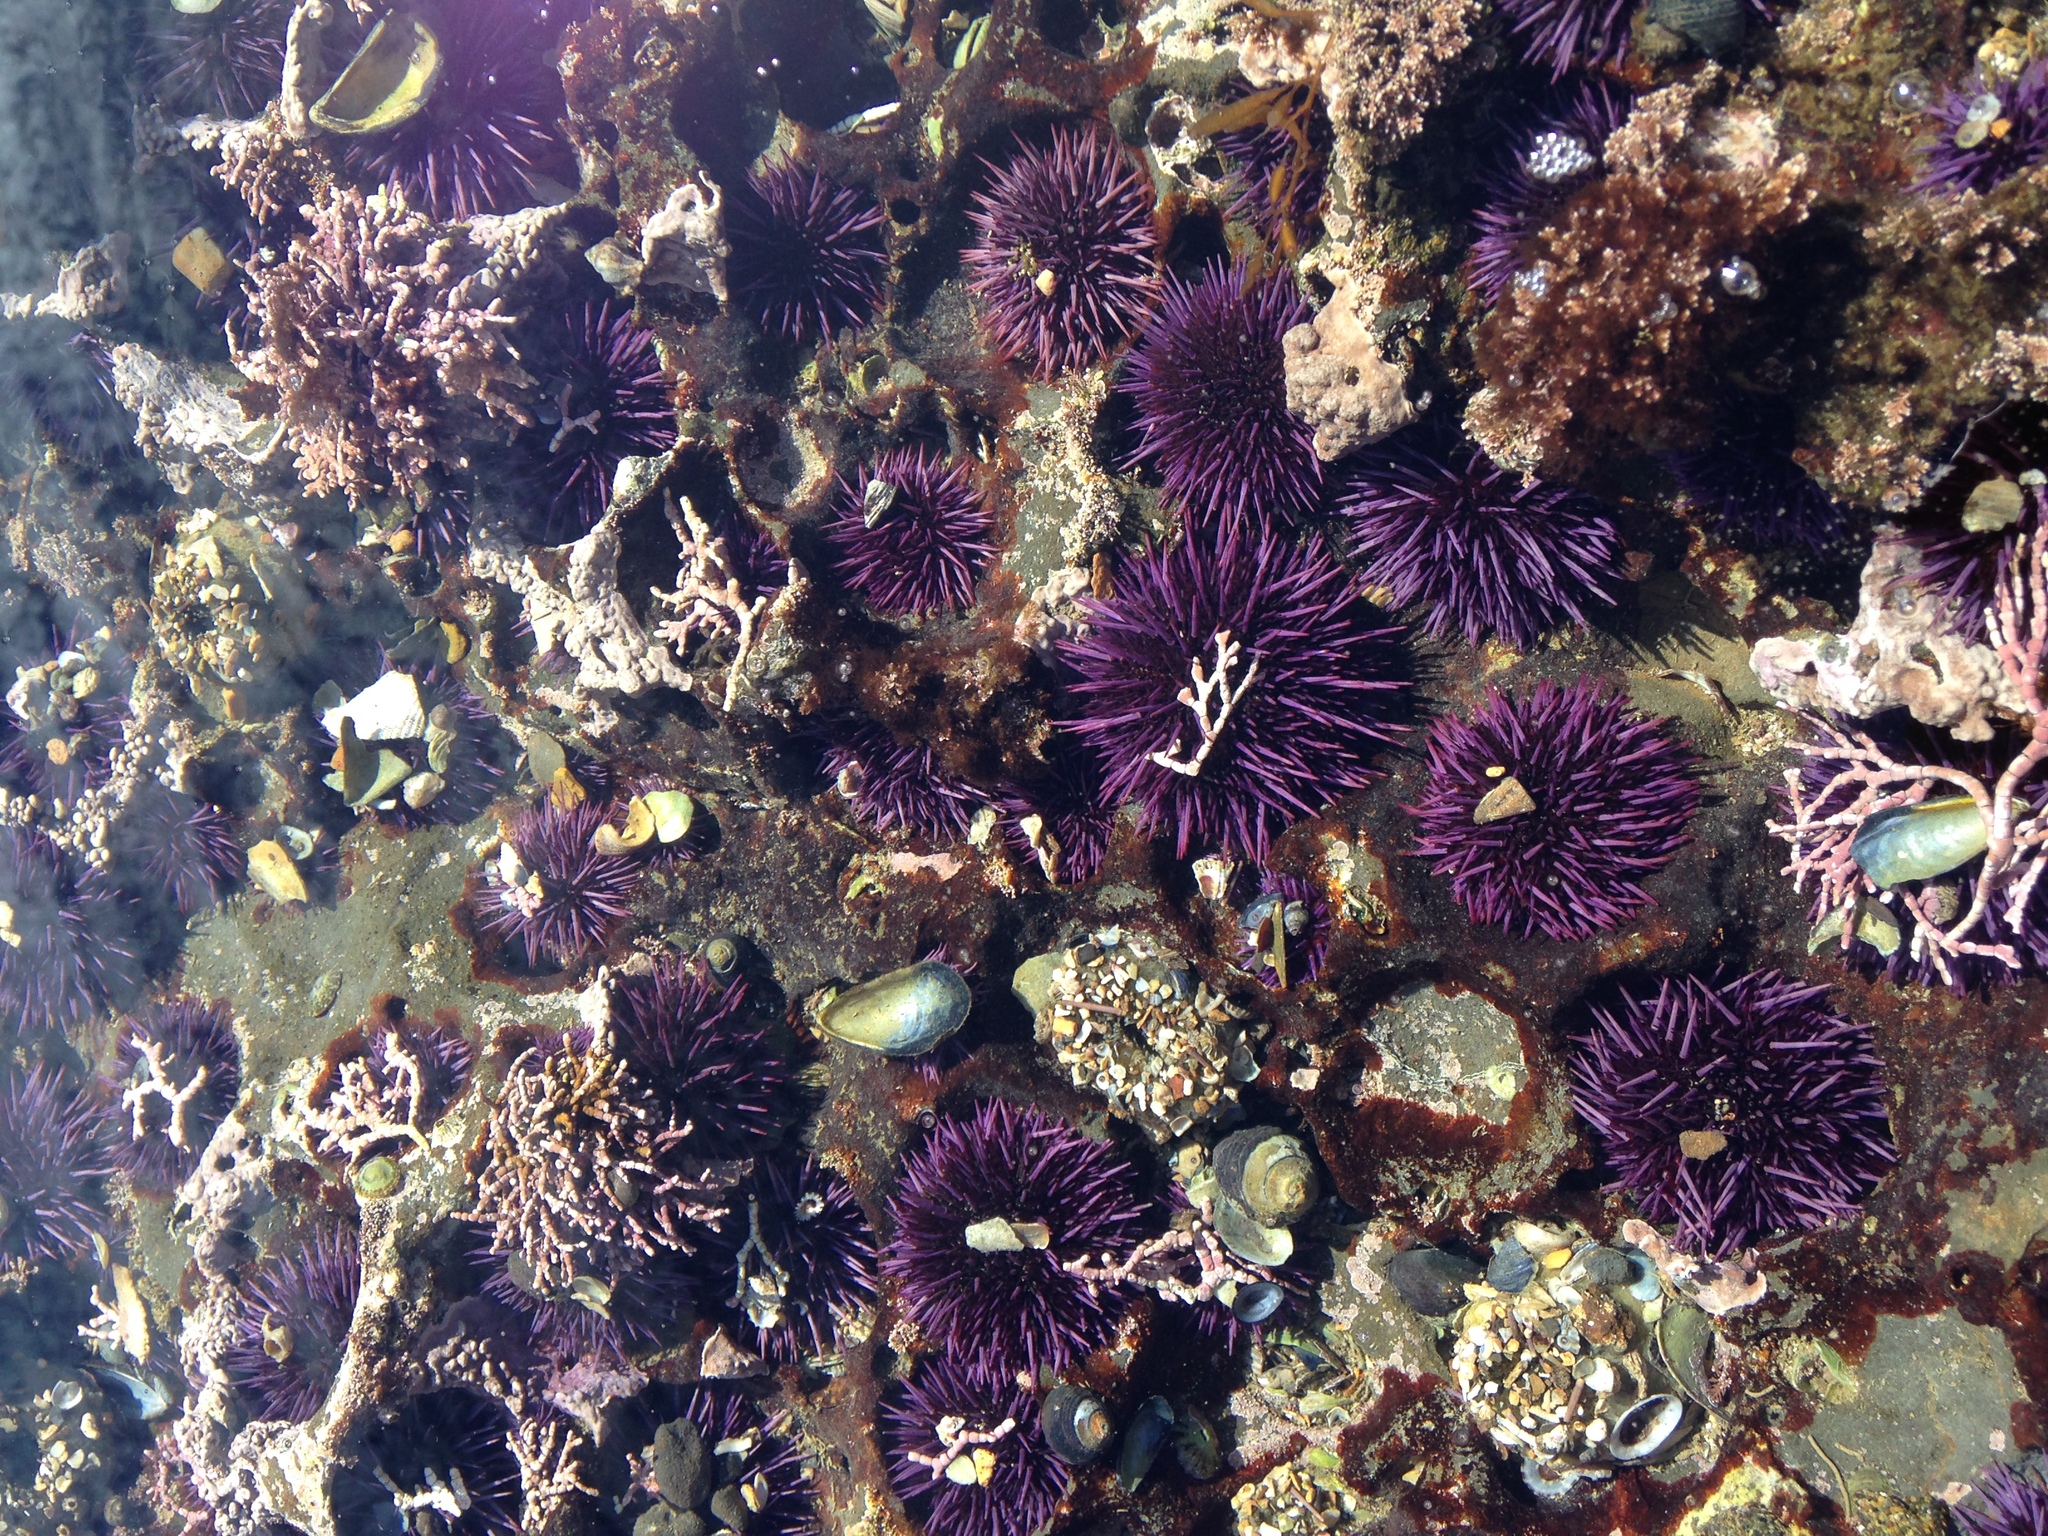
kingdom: Animalia
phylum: Echinodermata
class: Echinoidea
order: Camarodonta
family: Strongylocentrotidae
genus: Strongylocentrotus
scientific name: Strongylocentrotus purpuratus
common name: Purple sea urchin
